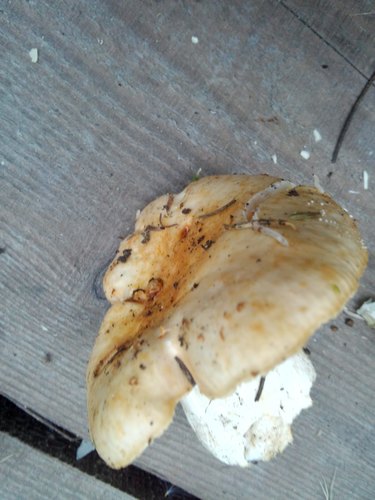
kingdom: Fungi
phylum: Basidiomycota
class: Agaricomycetes
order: Russulales
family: Russulaceae
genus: Russula
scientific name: Russula cerolens
